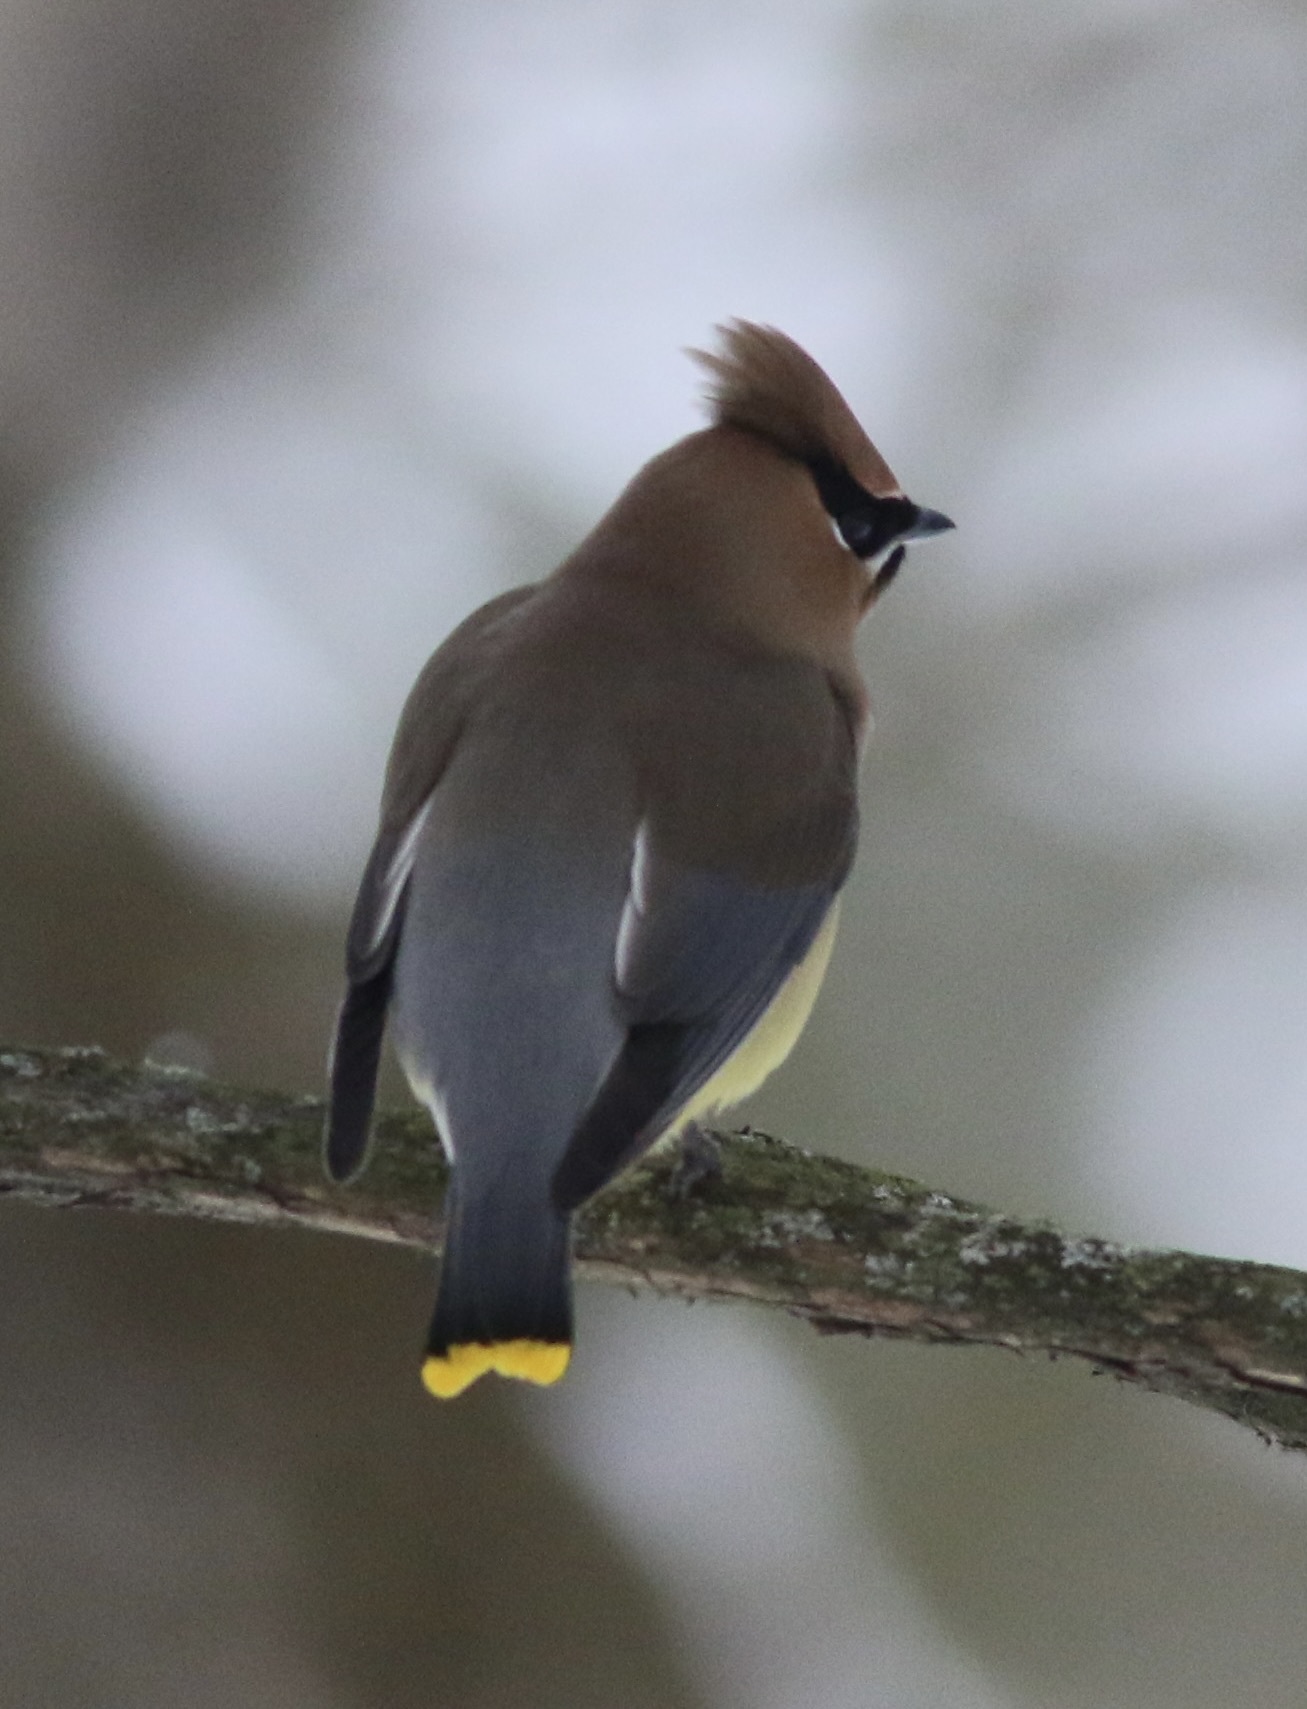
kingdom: Animalia
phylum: Chordata
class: Aves
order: Passeriformes
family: Bombycillidae
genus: Bombycilla
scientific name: Bombycilla cedrorum
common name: Cedar waxwing
